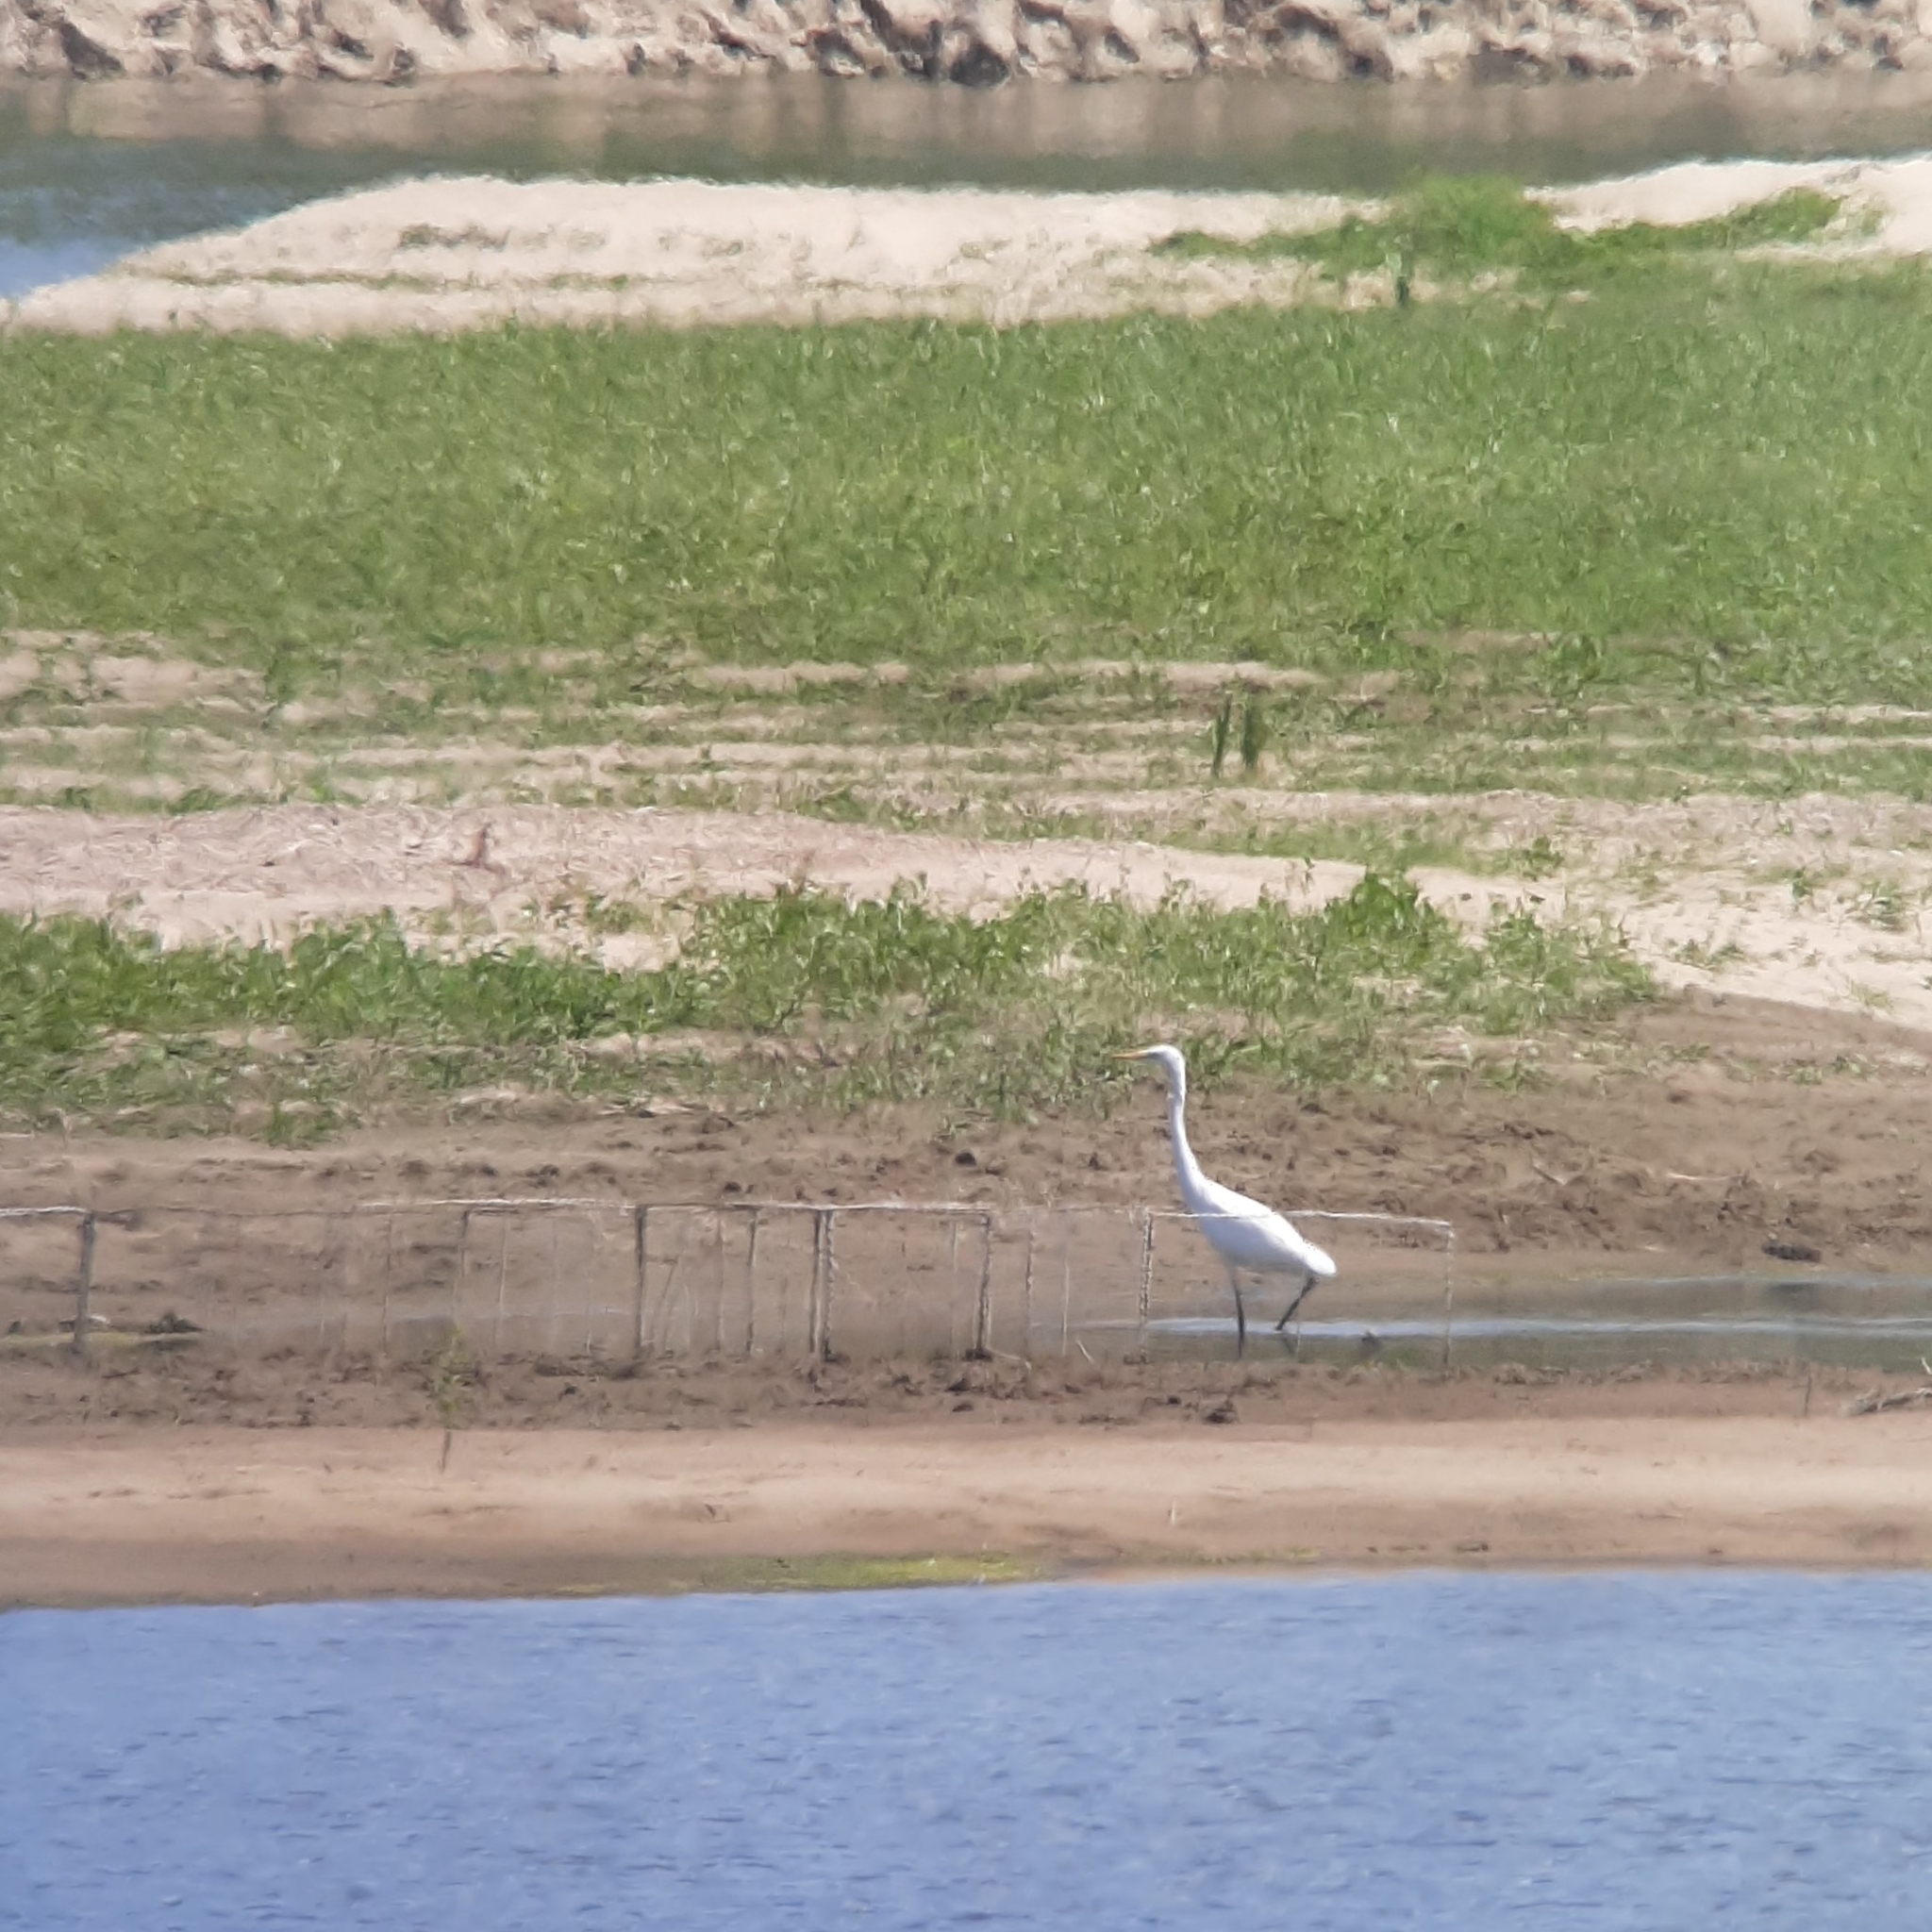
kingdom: Animalia
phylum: Chordata
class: Aves
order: Pelecaniformes
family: Ardeidae
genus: Ardea
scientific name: Ardea alba
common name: Great egret
